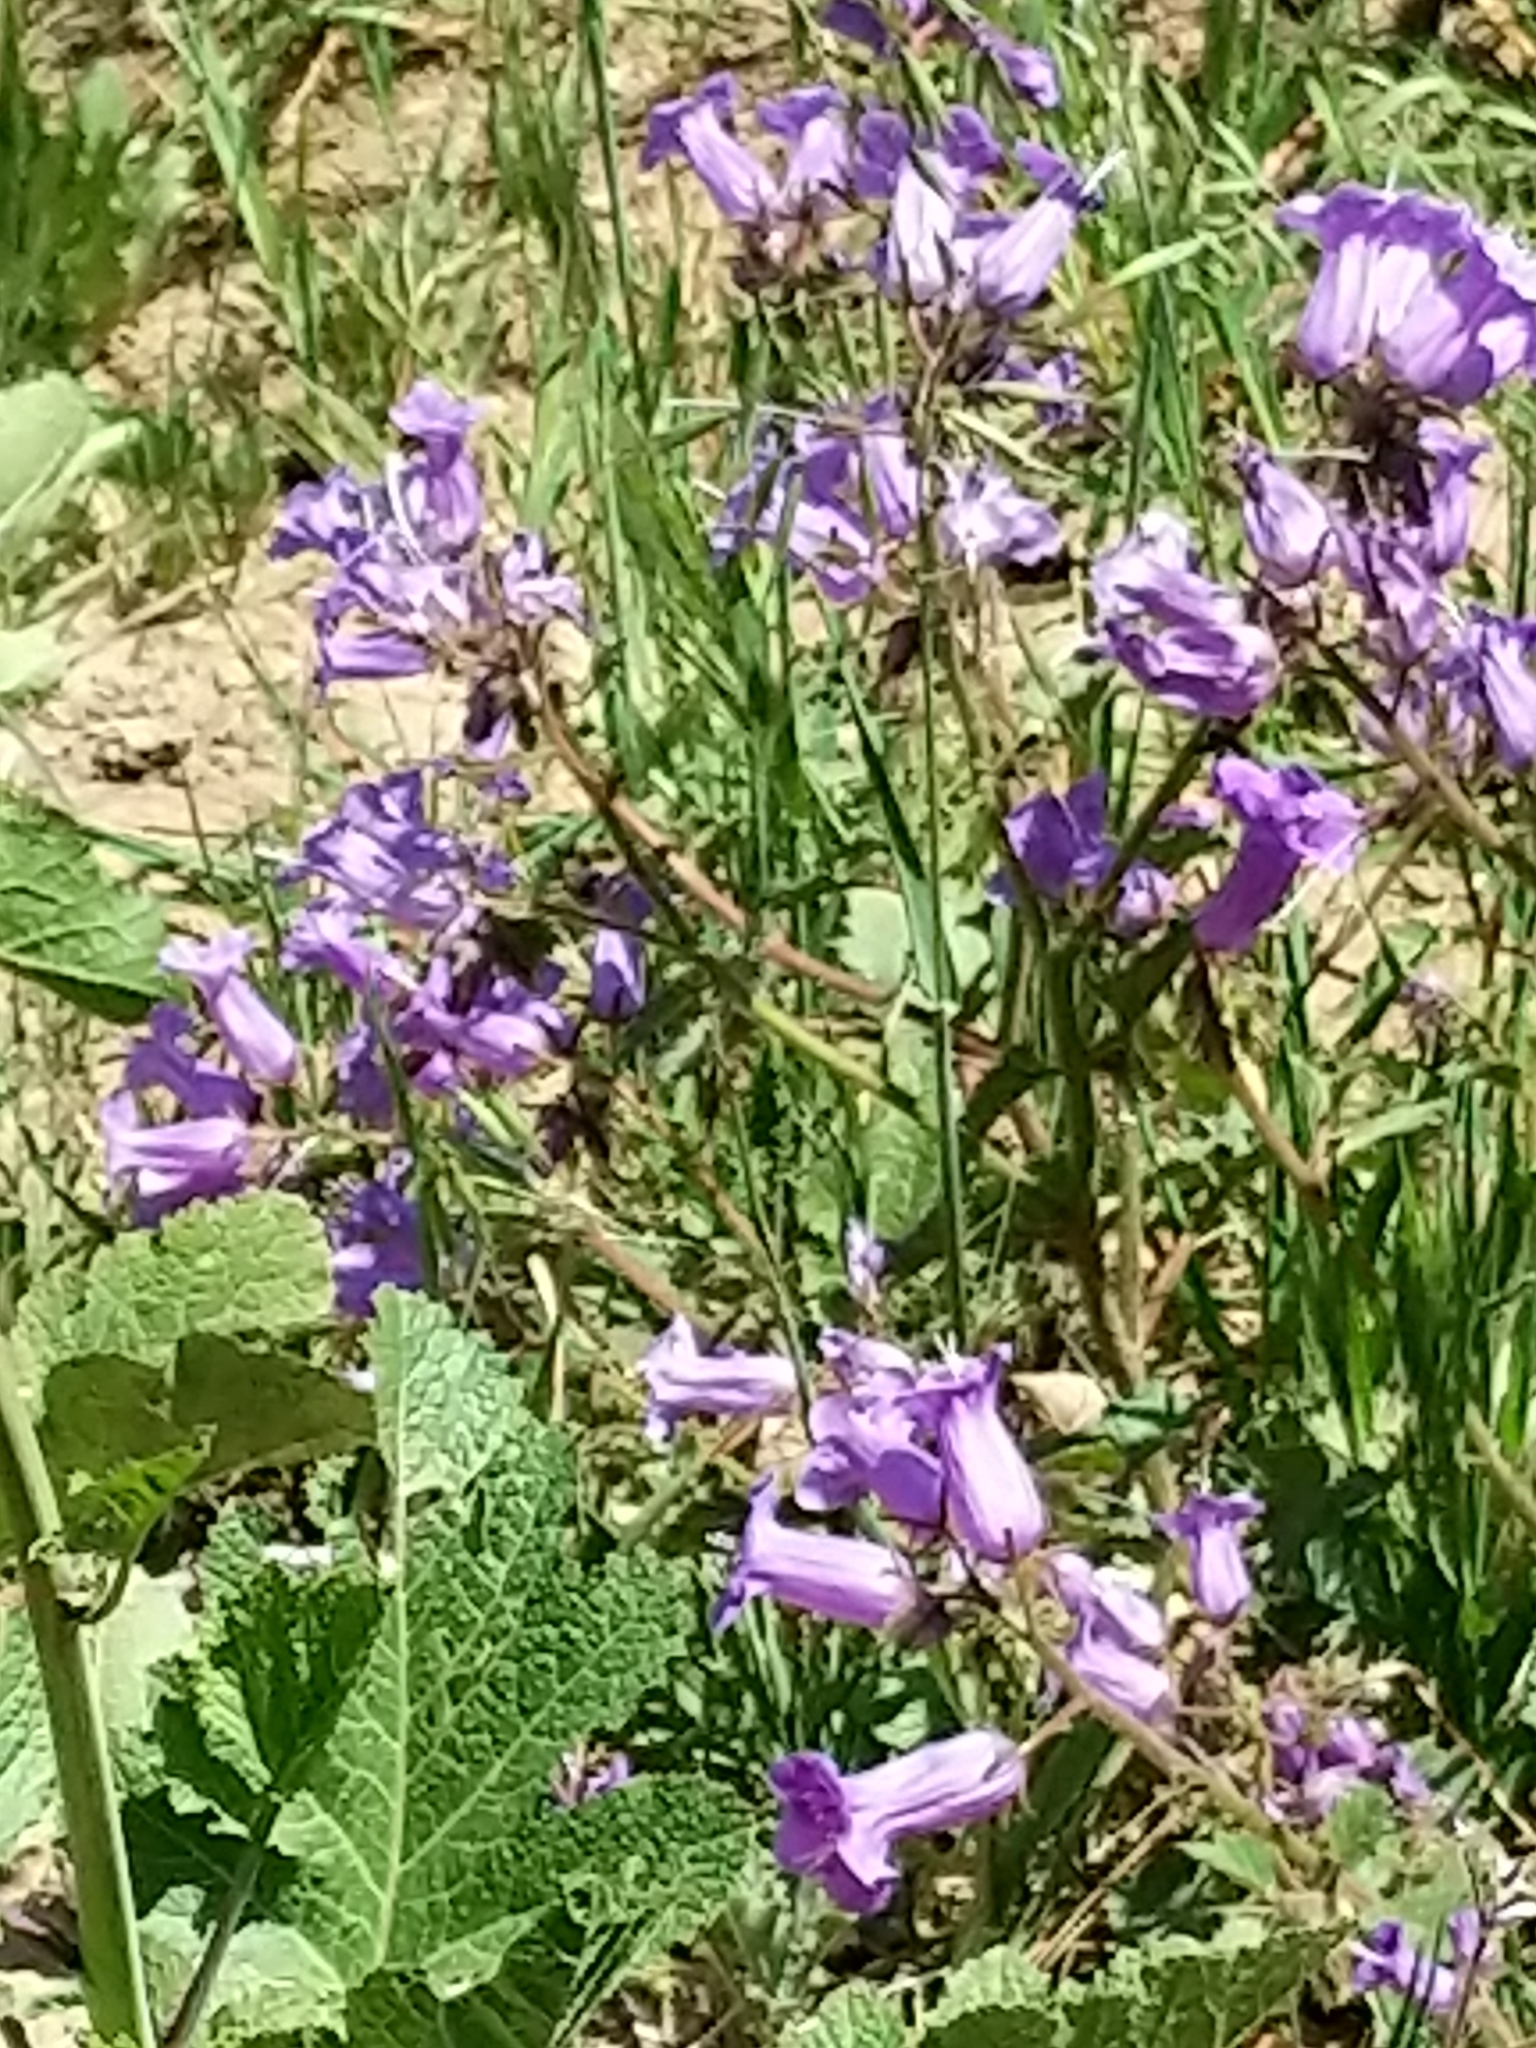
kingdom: Plantae
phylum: Tracheophyta
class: Magnoliopsida
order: Boraginales
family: Hydrophyllaceae
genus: Phacelia
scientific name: Phacelia minor
